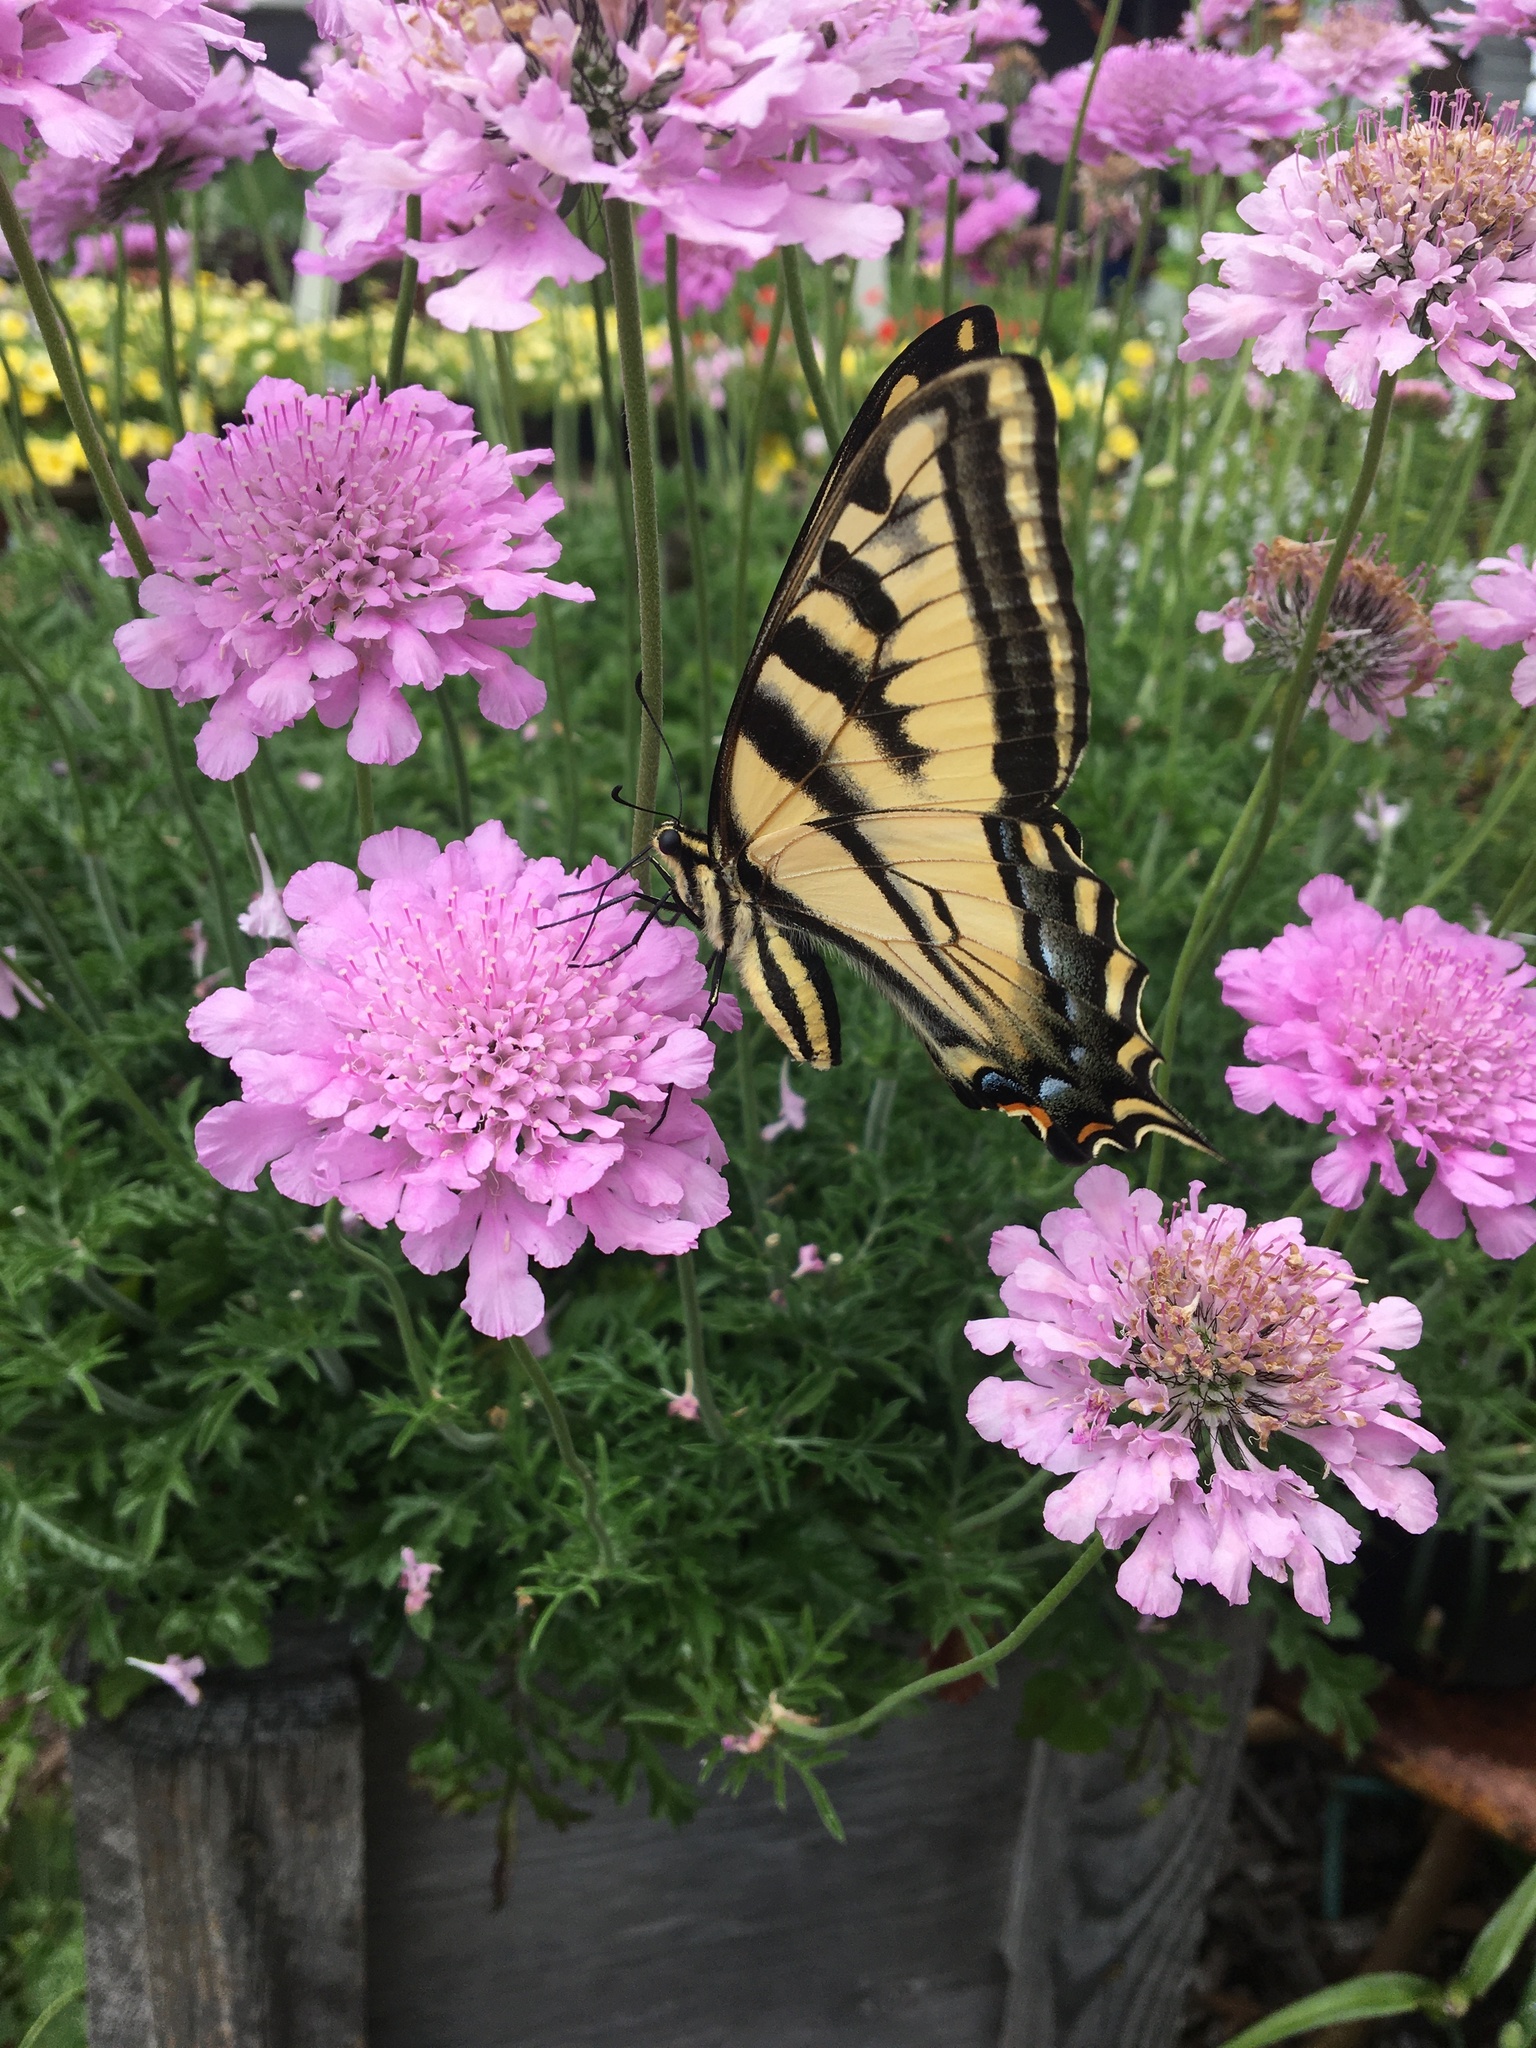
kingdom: Animalia
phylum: Arthropoda
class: Insecta
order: Lepidoptera
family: Papilionidae
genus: Papilio
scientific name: Papilio rutulus
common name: Western tiger swallowtail
